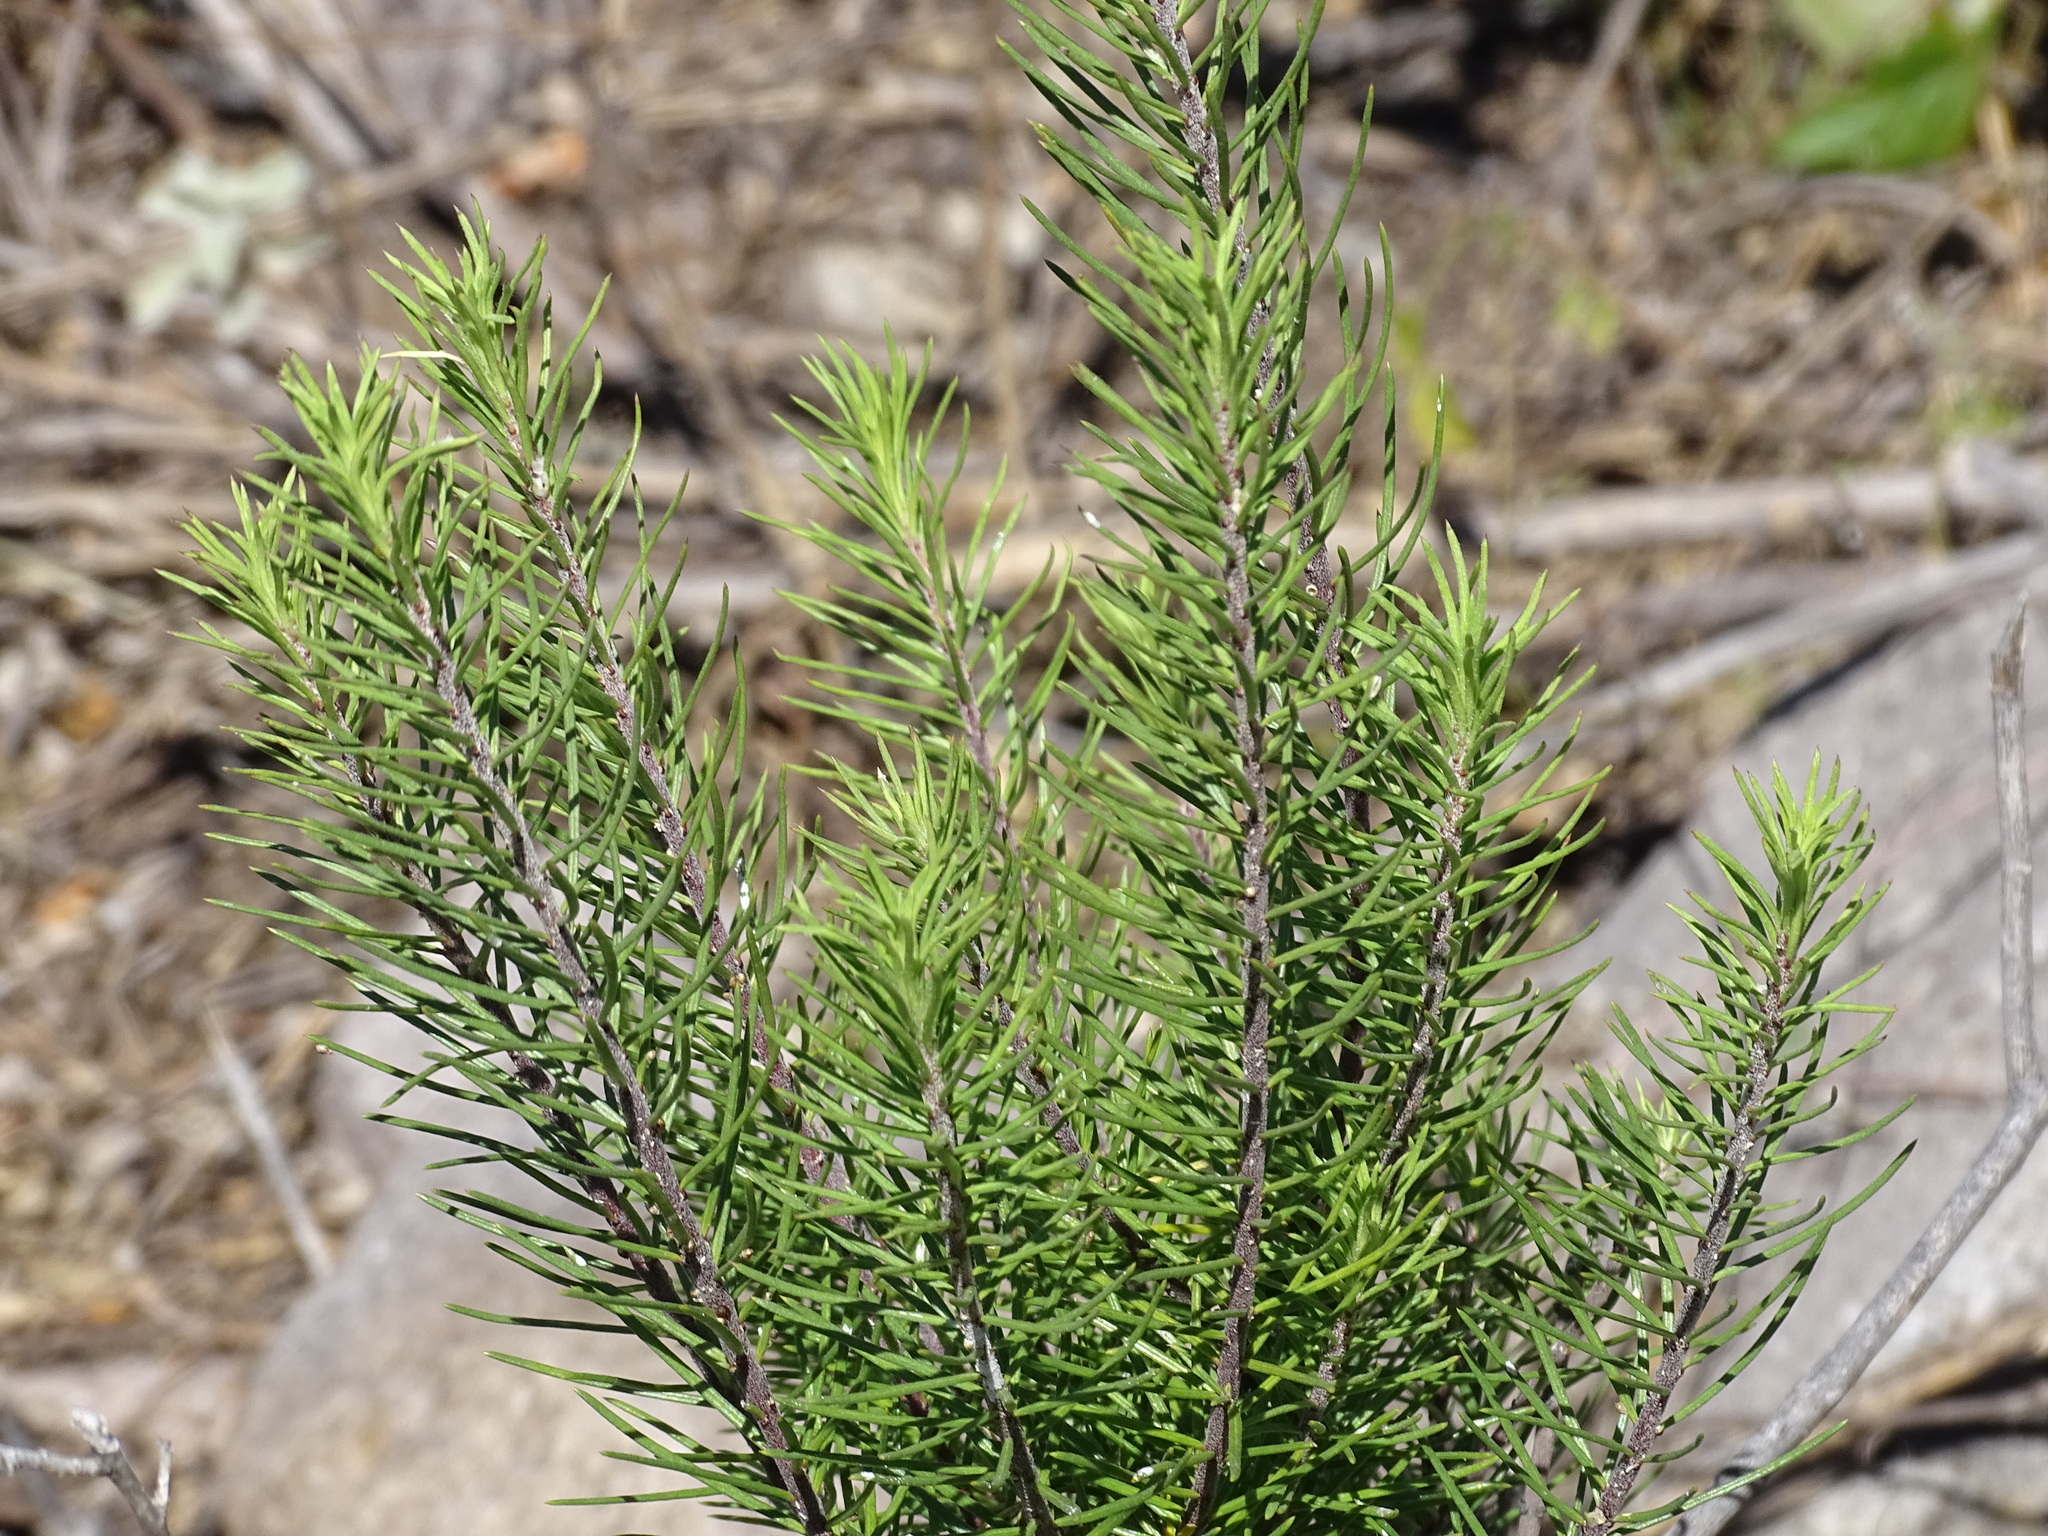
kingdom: Plantae
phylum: Tracheophyta
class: Magnoliopsida
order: Gentianales
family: Apocynaceae
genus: Asclepias
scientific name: Asclepias linaria
